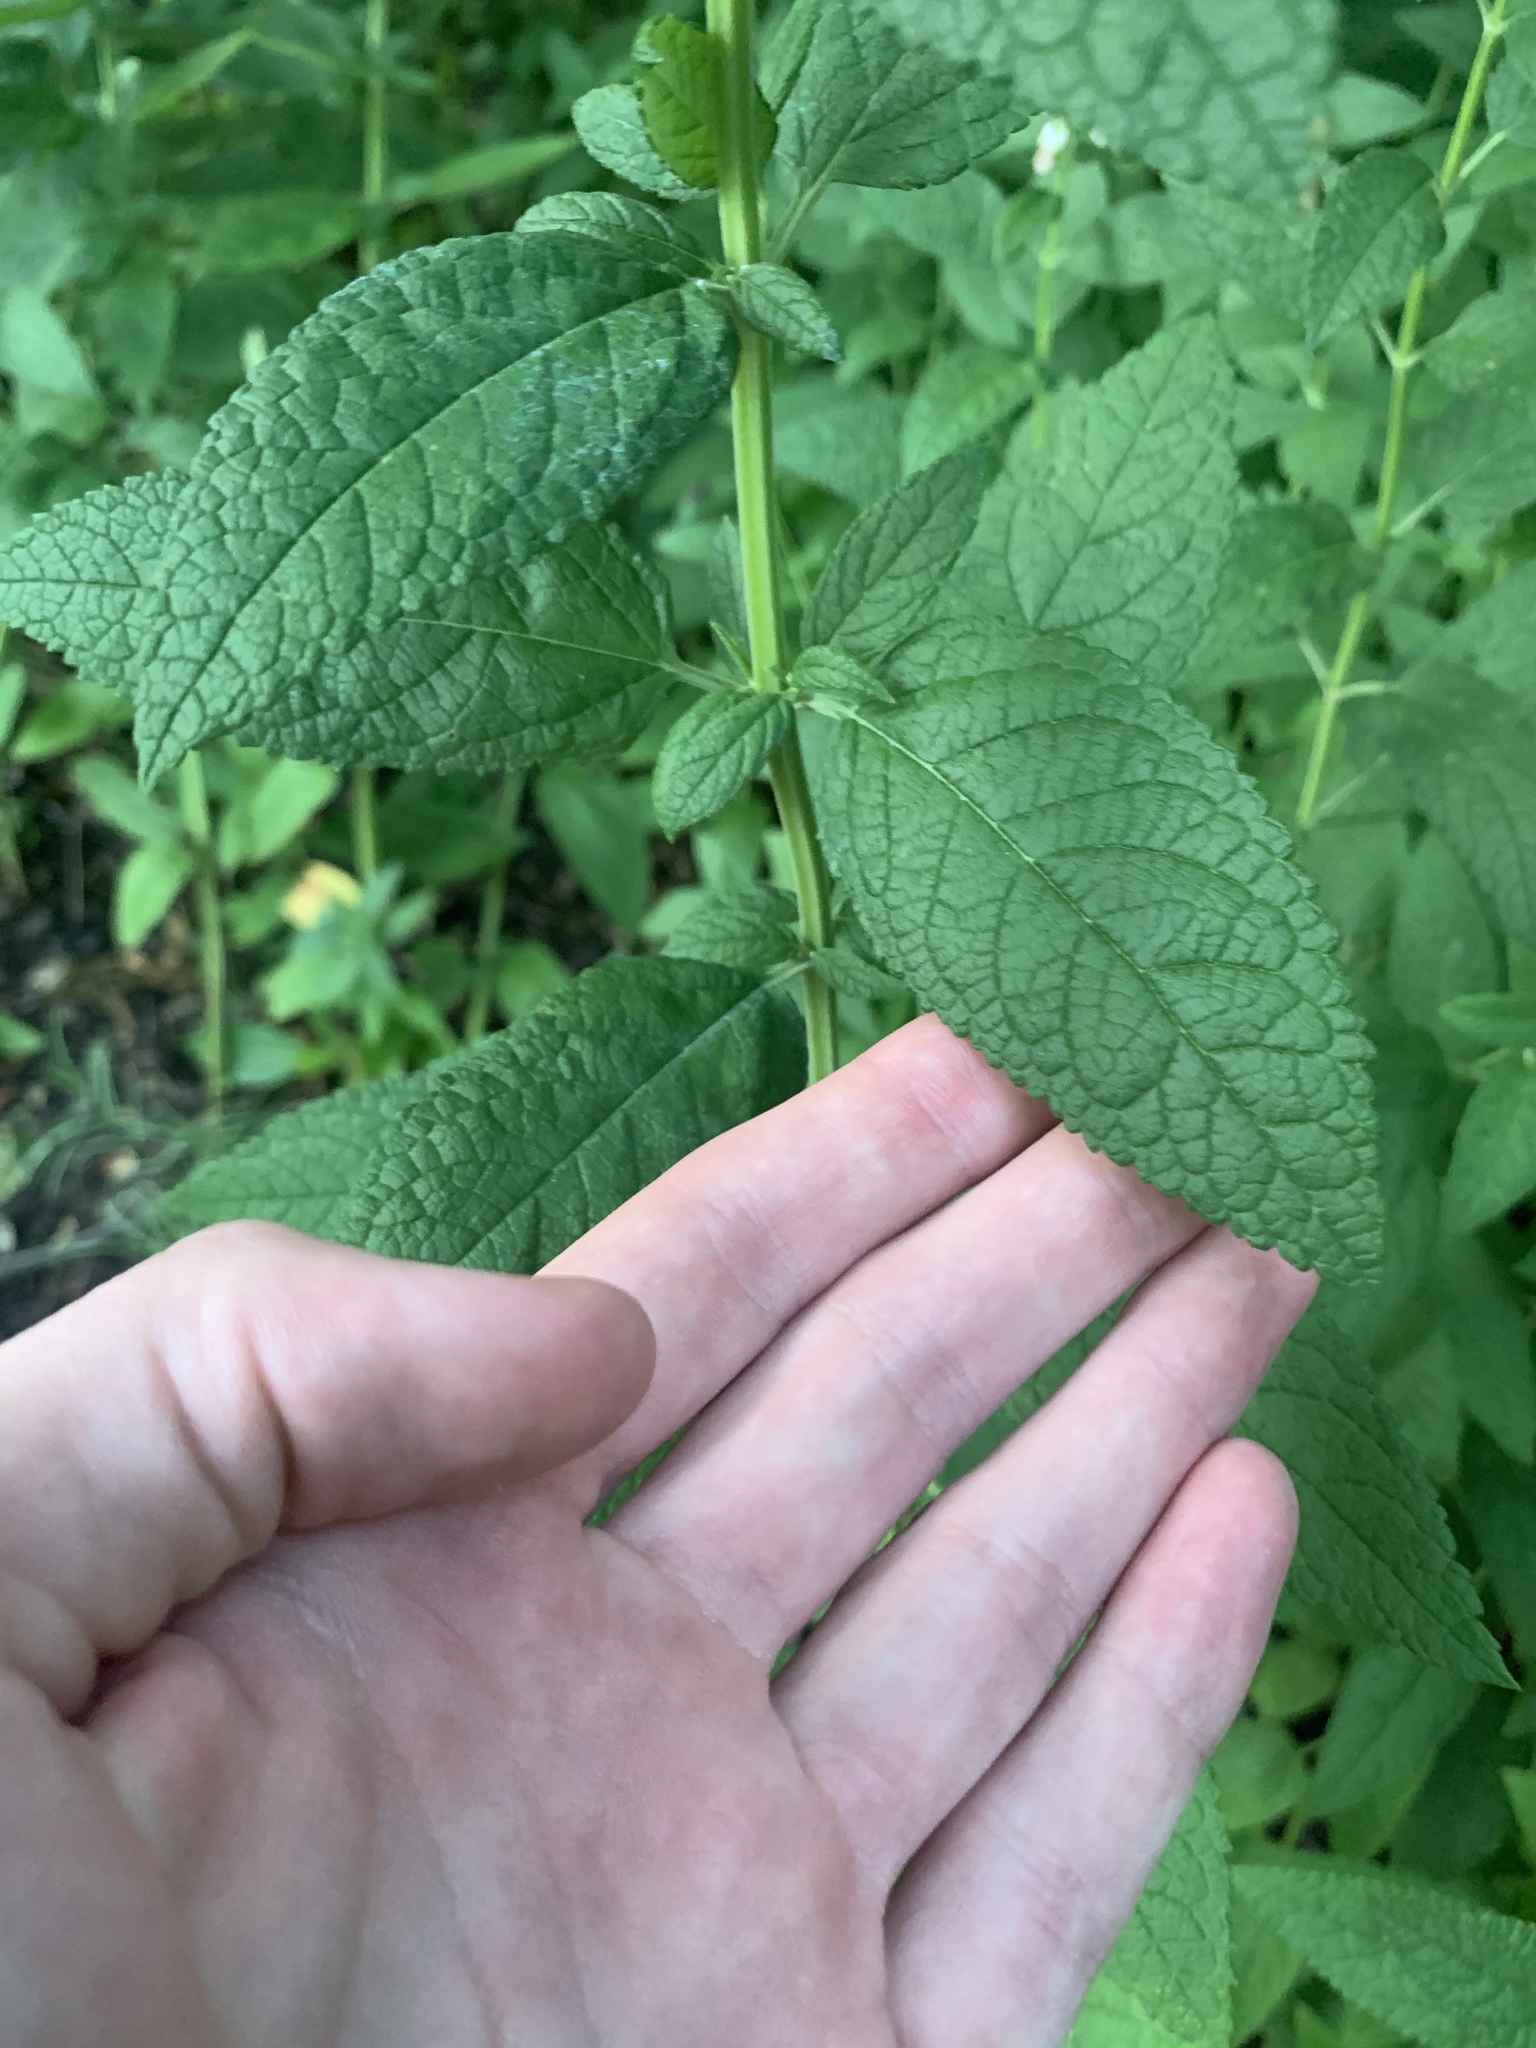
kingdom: Plantae
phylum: Tracheophyta
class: Magnoliopsida
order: Lamiales
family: Lamiaceae
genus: Teucrium
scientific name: Teucrium canadense
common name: American germander
